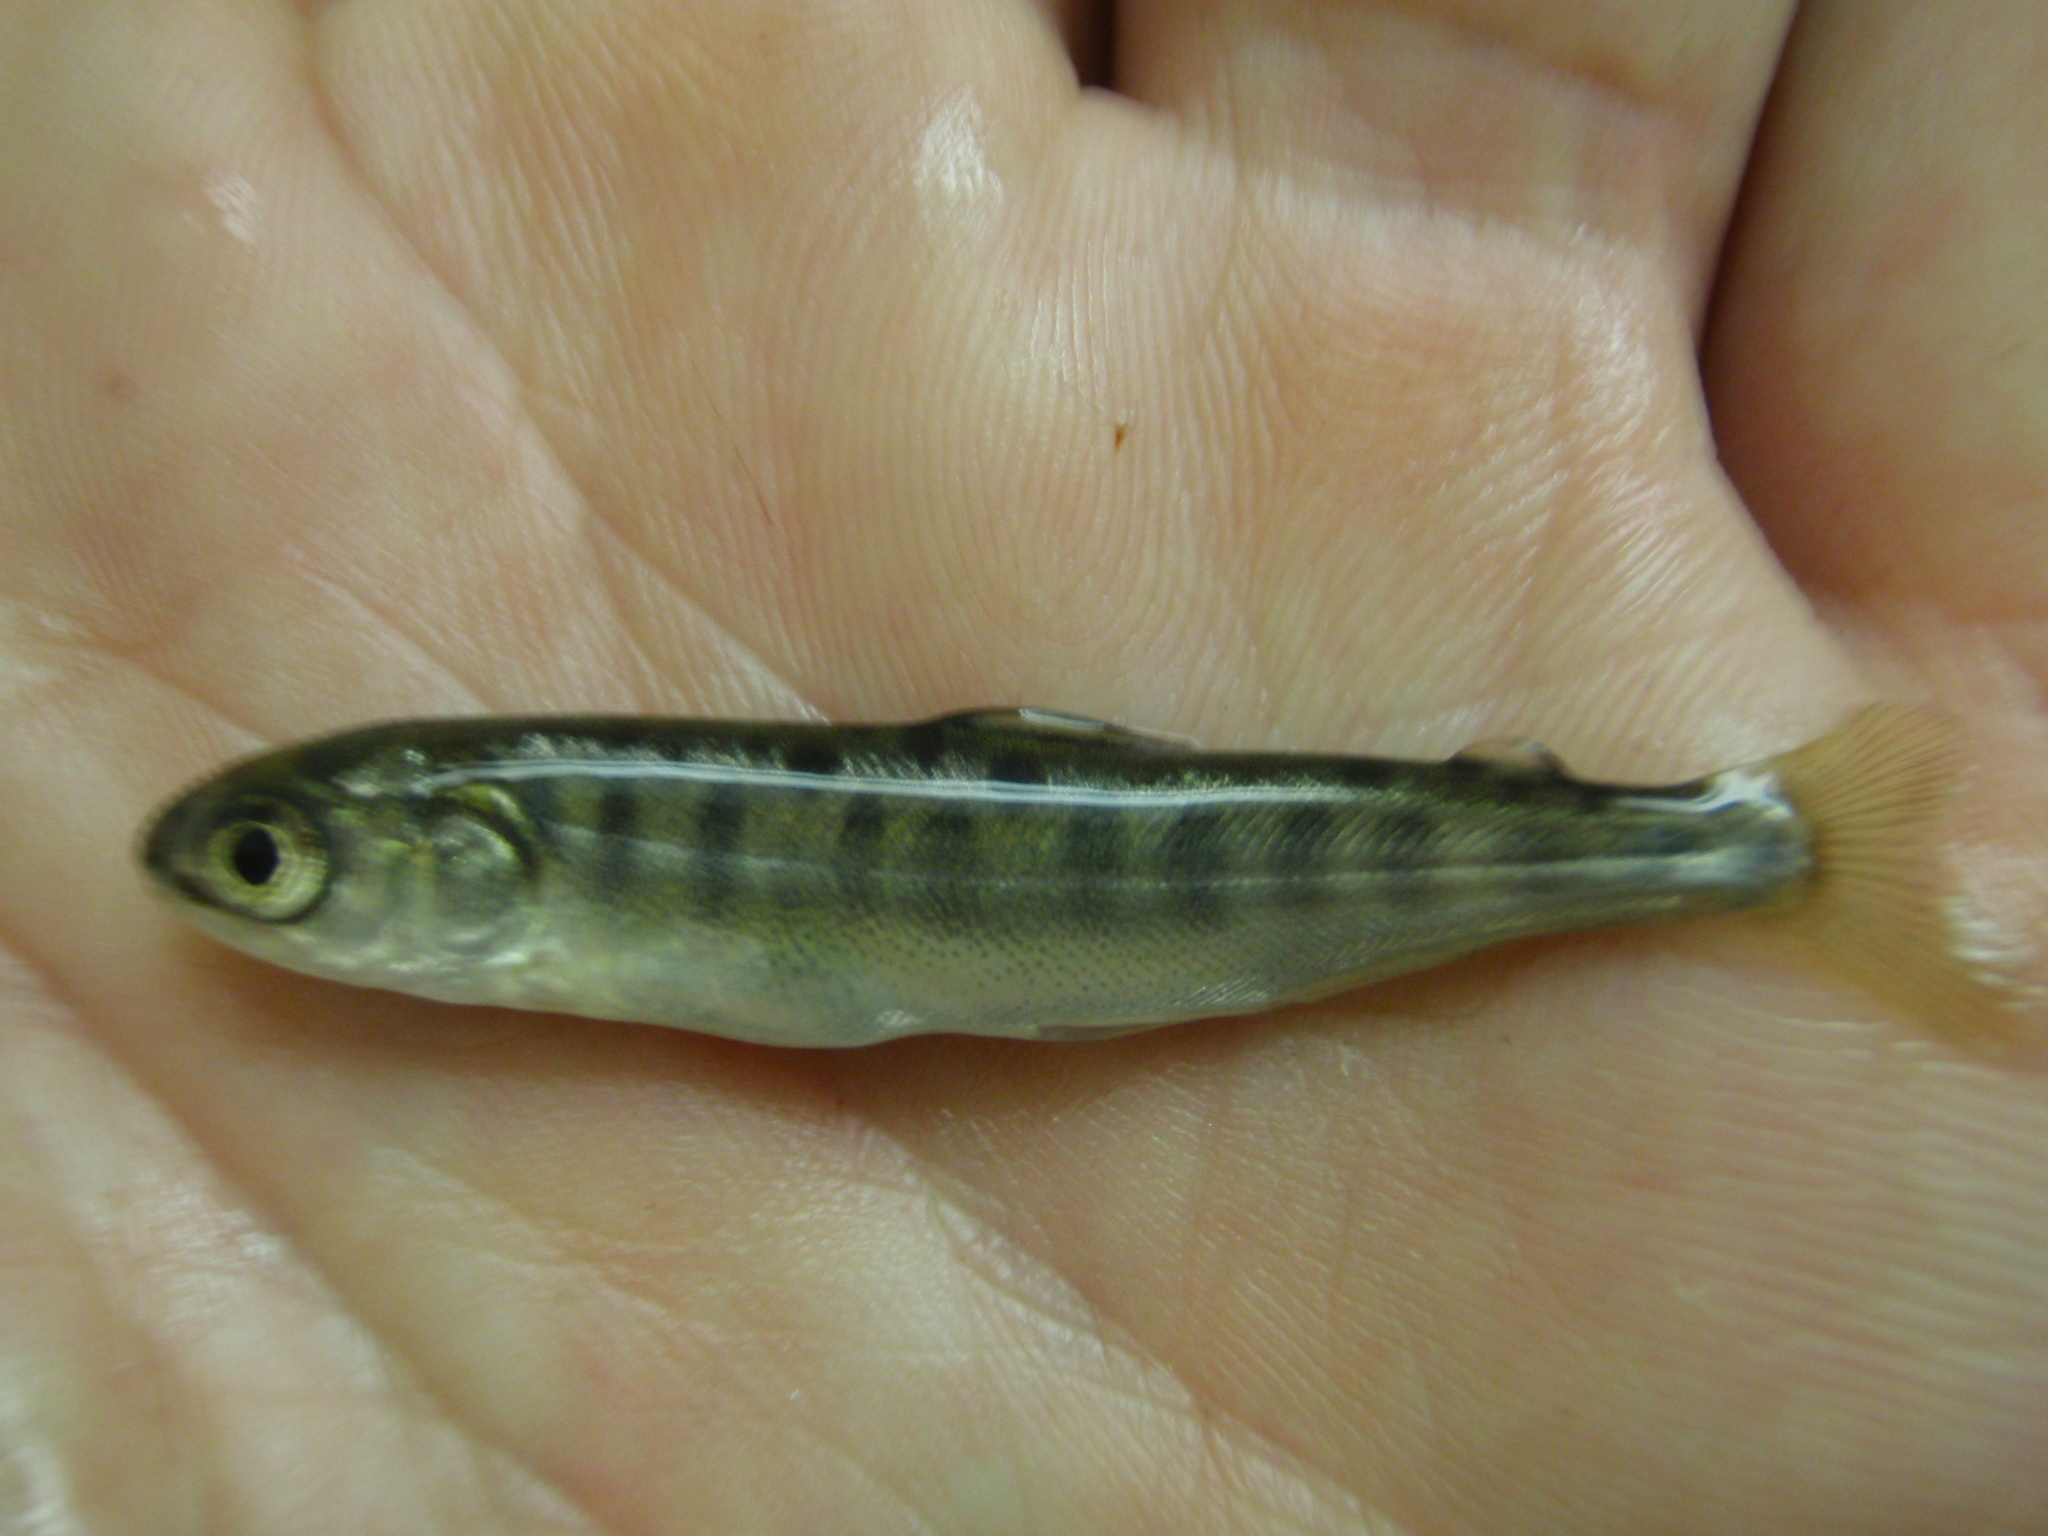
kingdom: Animalia
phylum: Chordata
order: Salmoniformes
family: Salmonidae
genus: Oncorhynchus
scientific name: Oncorhynchus tshawytscha
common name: Chinook salmon
